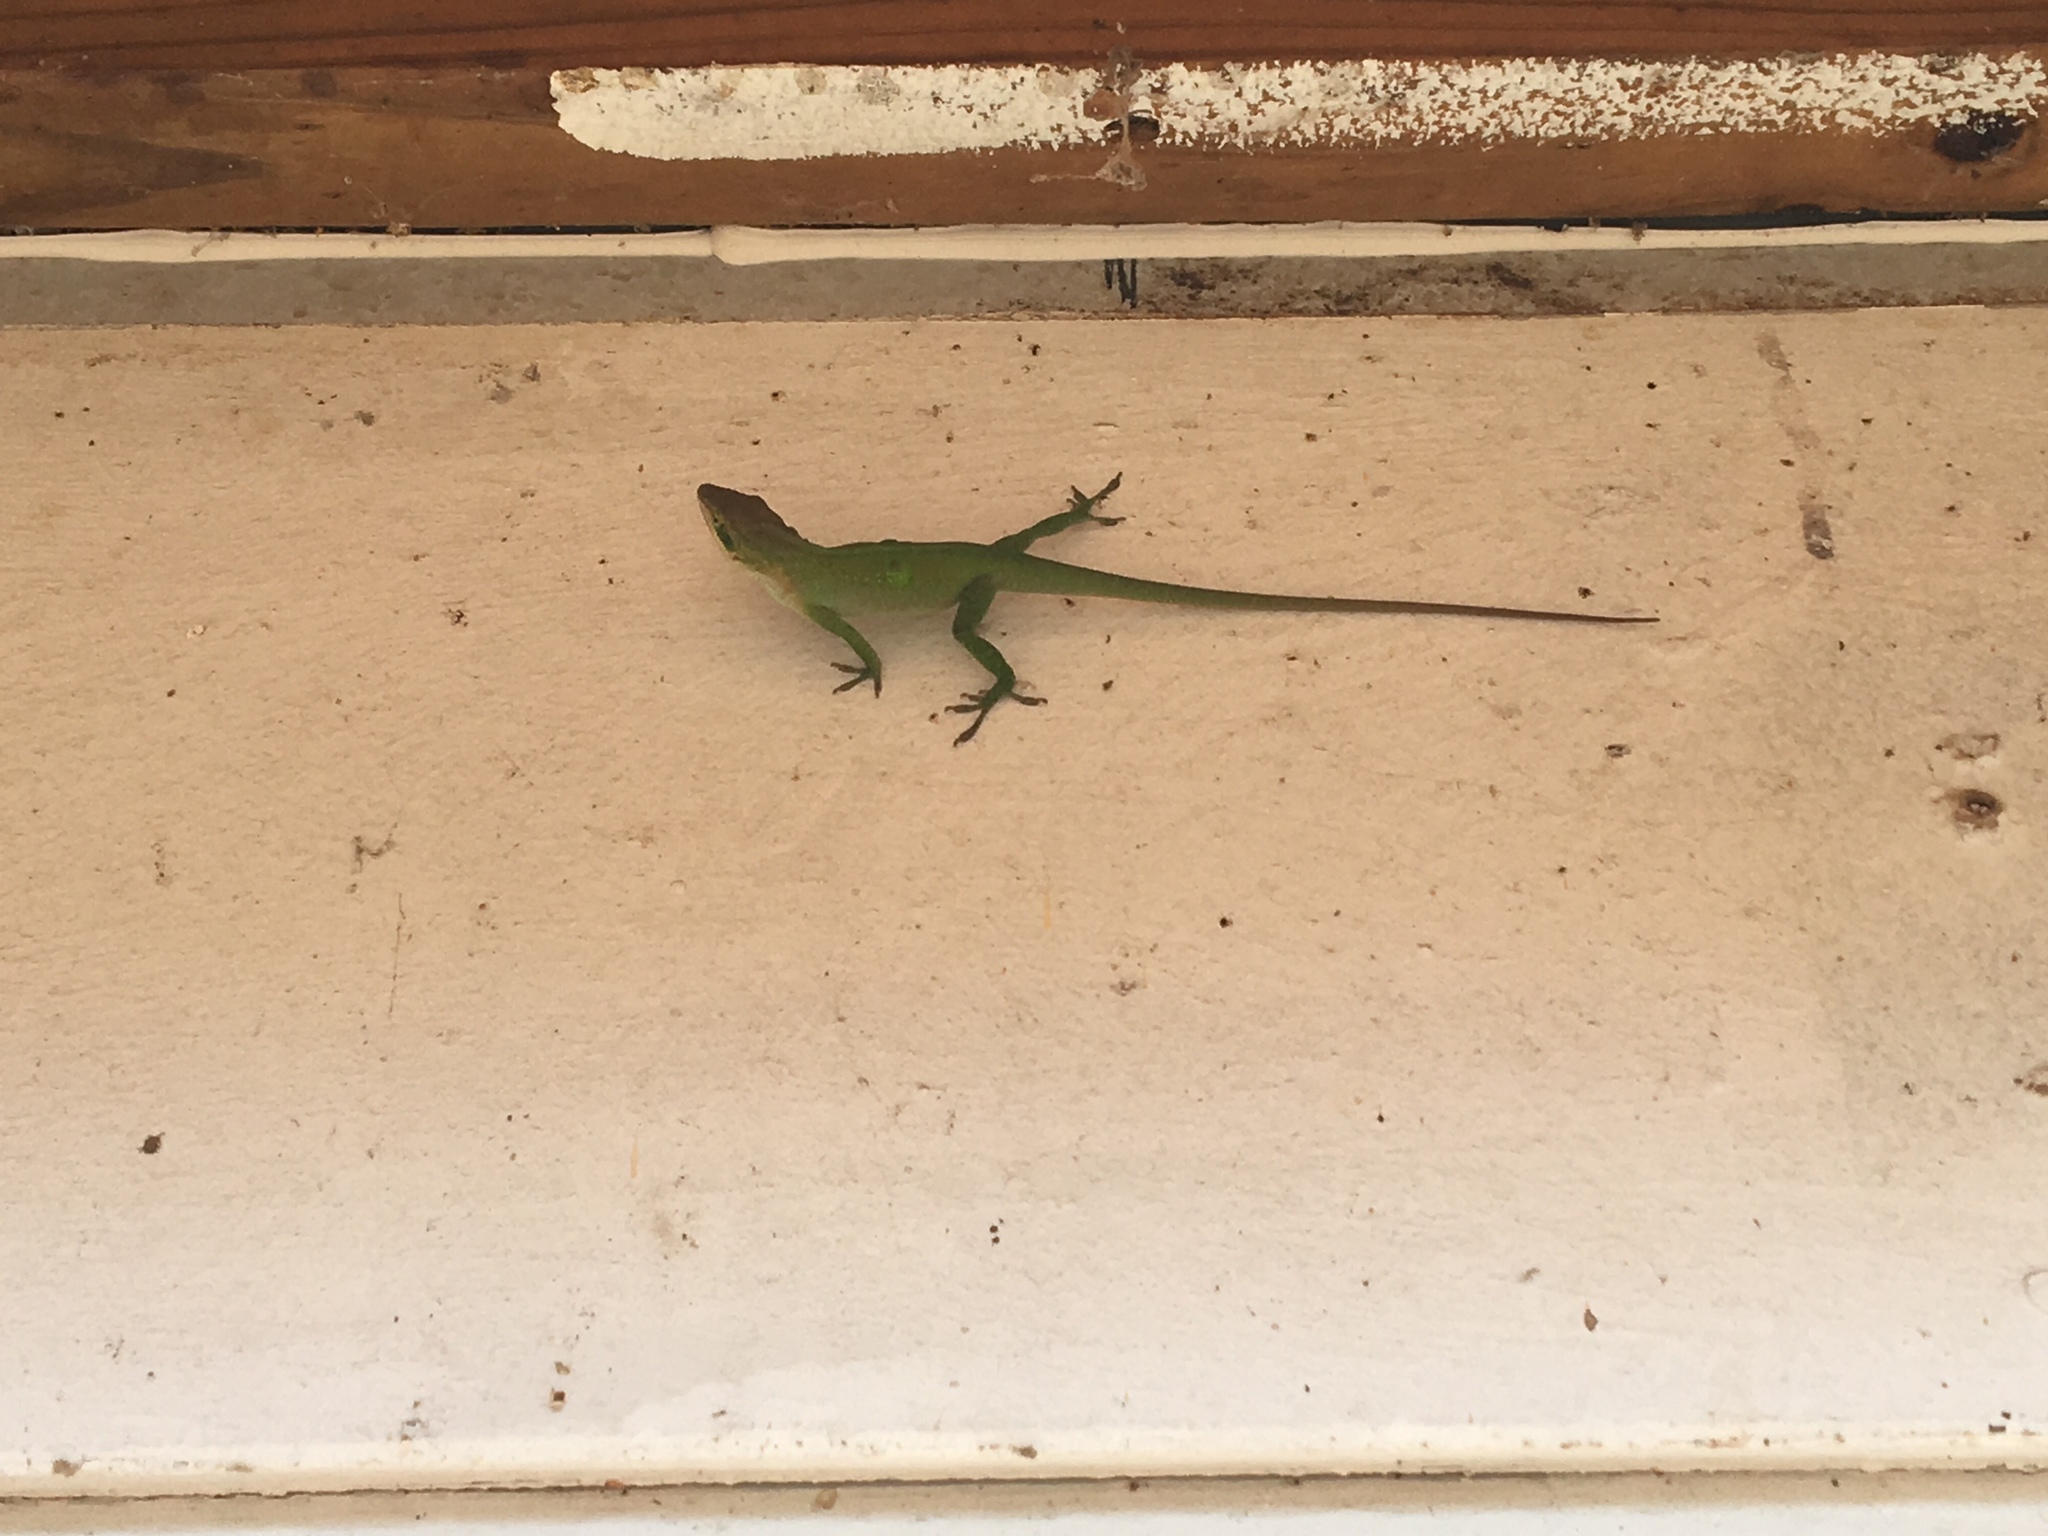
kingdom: Animalia
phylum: Chordata
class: Squamata
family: Dactyloidae
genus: Anolis
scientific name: Anolis carolinensis
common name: Green anole
